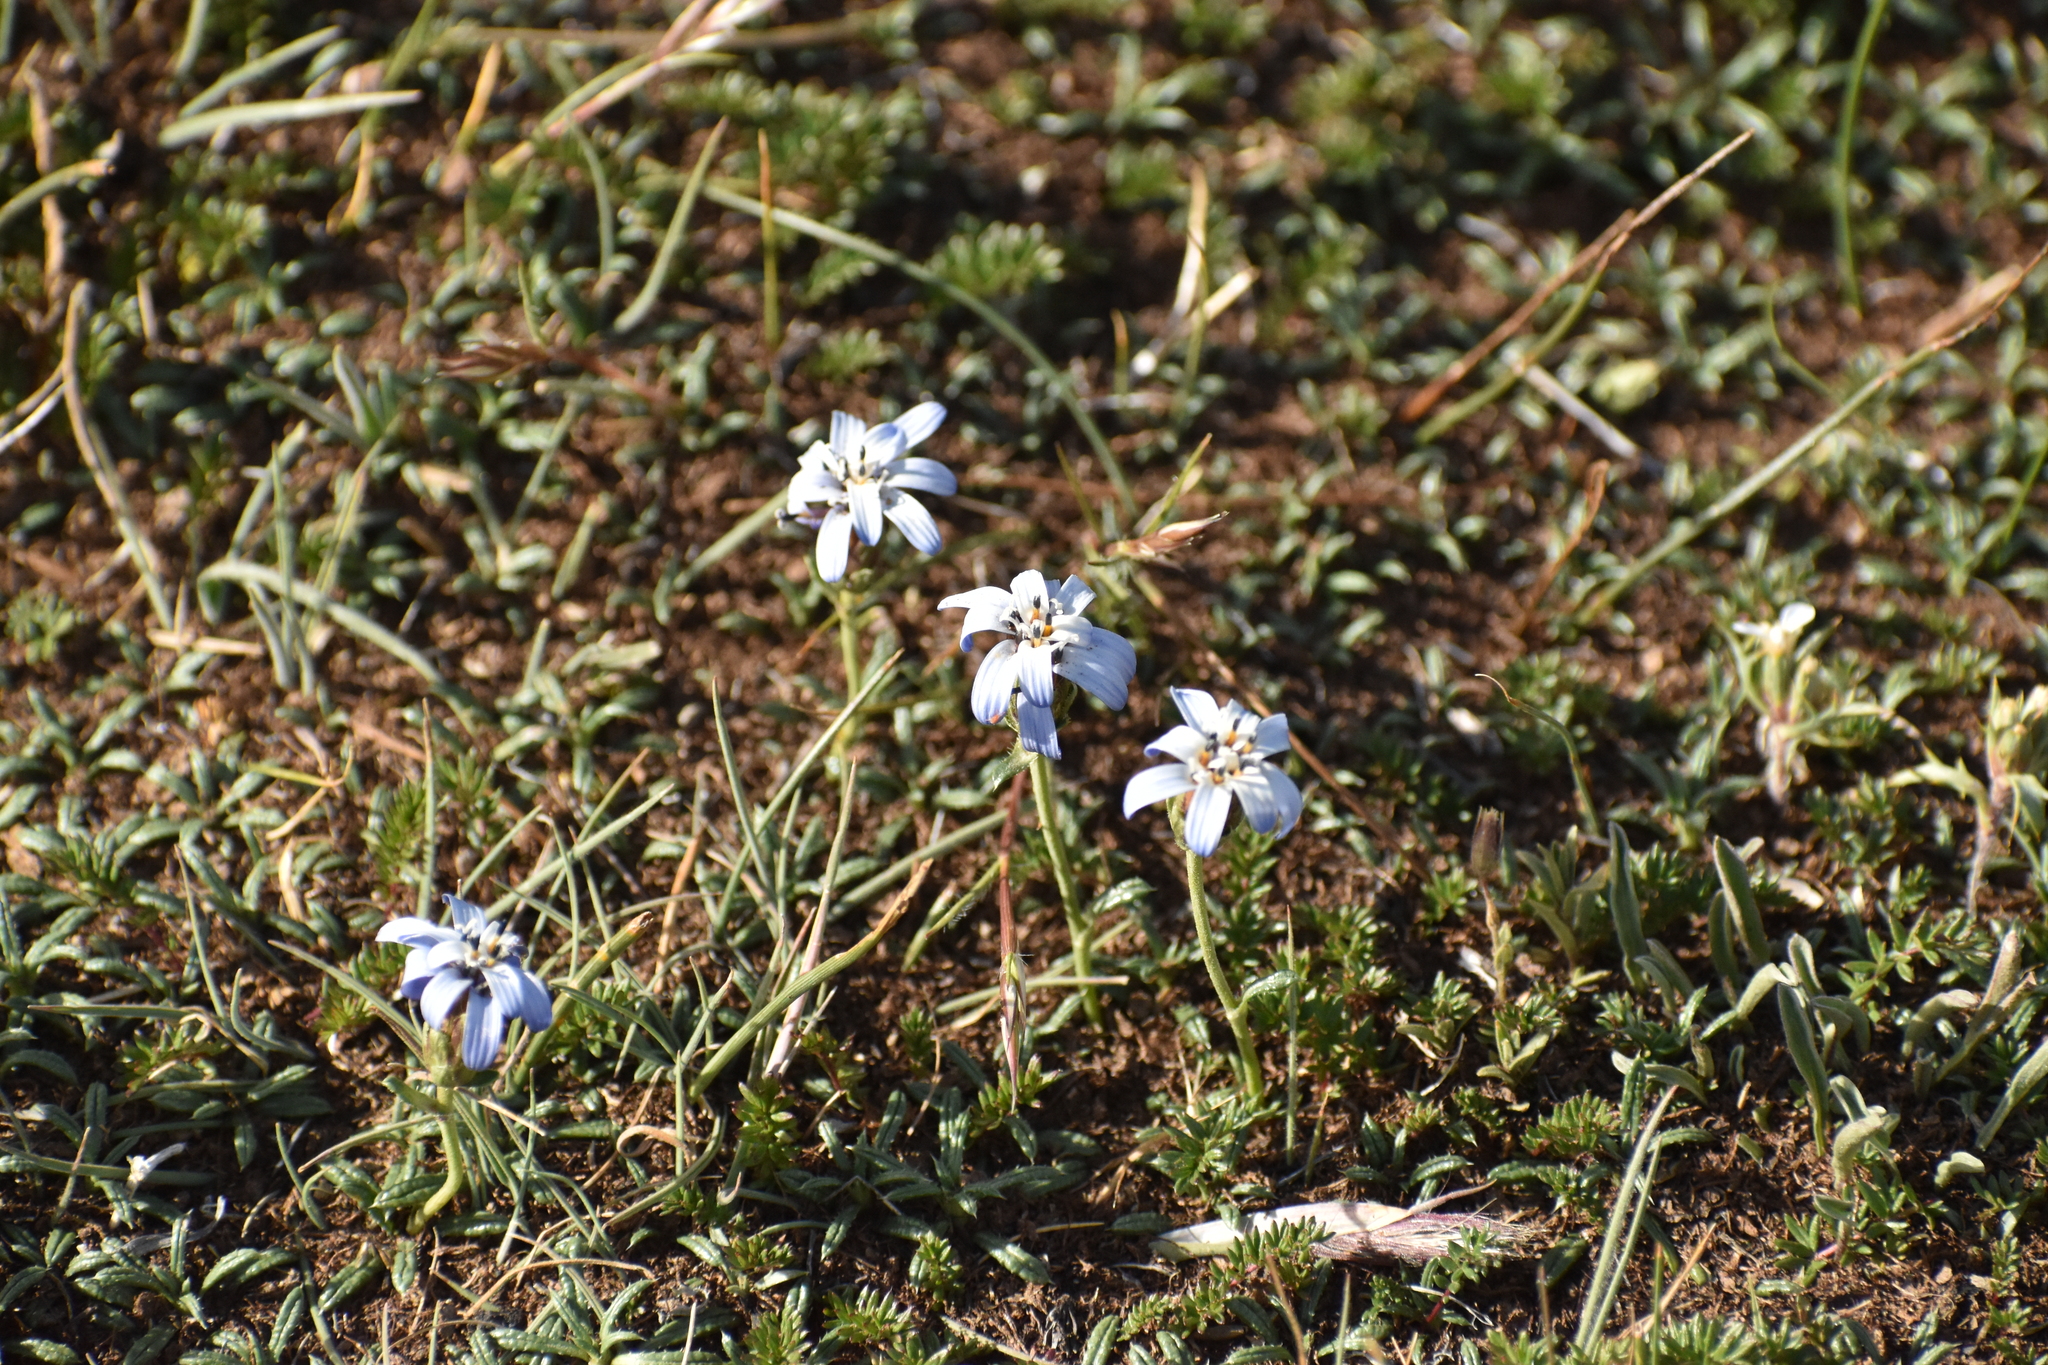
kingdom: Plantae
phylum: Tracheophyta
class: Magnoliopsida
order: Asterales
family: Asteraceae
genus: Perezia
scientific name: Perezia recurvata
